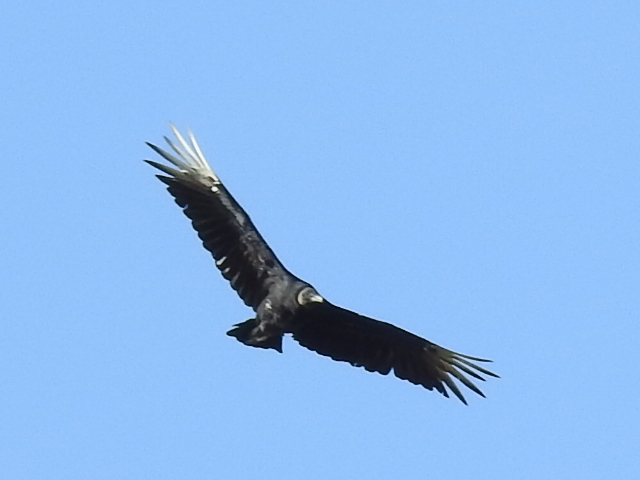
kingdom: Animalia
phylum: Chordata
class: Aves
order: Accipitriformes
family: Cathartidae
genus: Coragyps
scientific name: Coragyps atratus
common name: Black vulture
